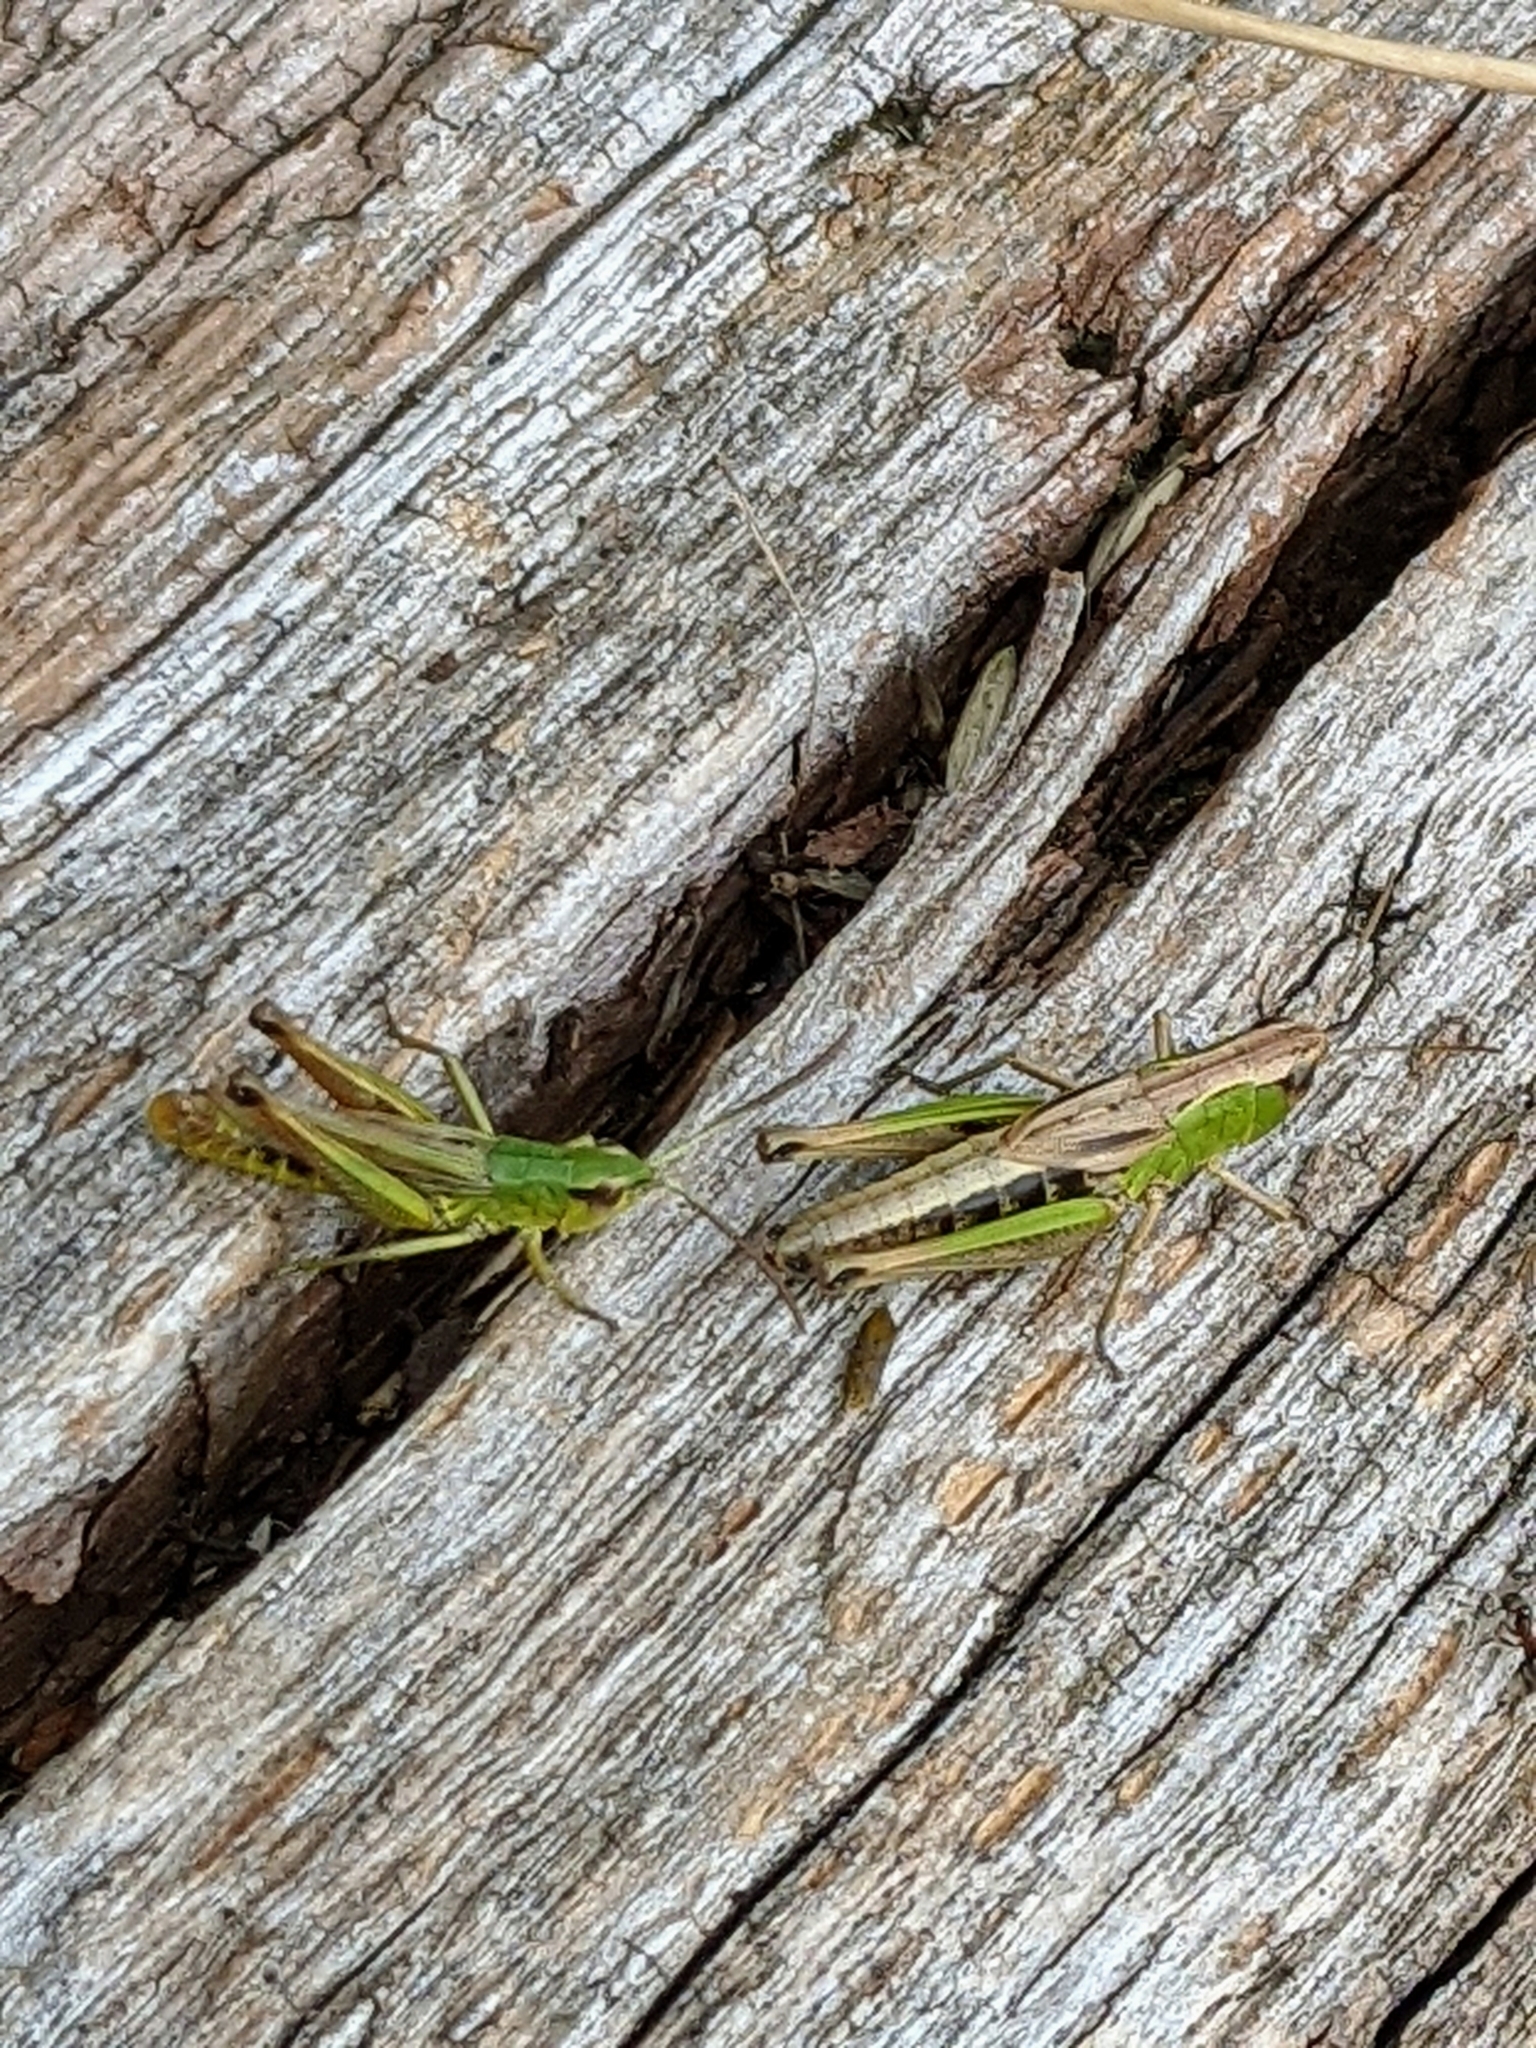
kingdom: Animalia
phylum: Arthropoda
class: Insecta
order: Orthoptera
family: Acrididae
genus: Pseudochorthippus
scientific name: Pseudochorthippus parallelus
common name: Meadow grasshopper
